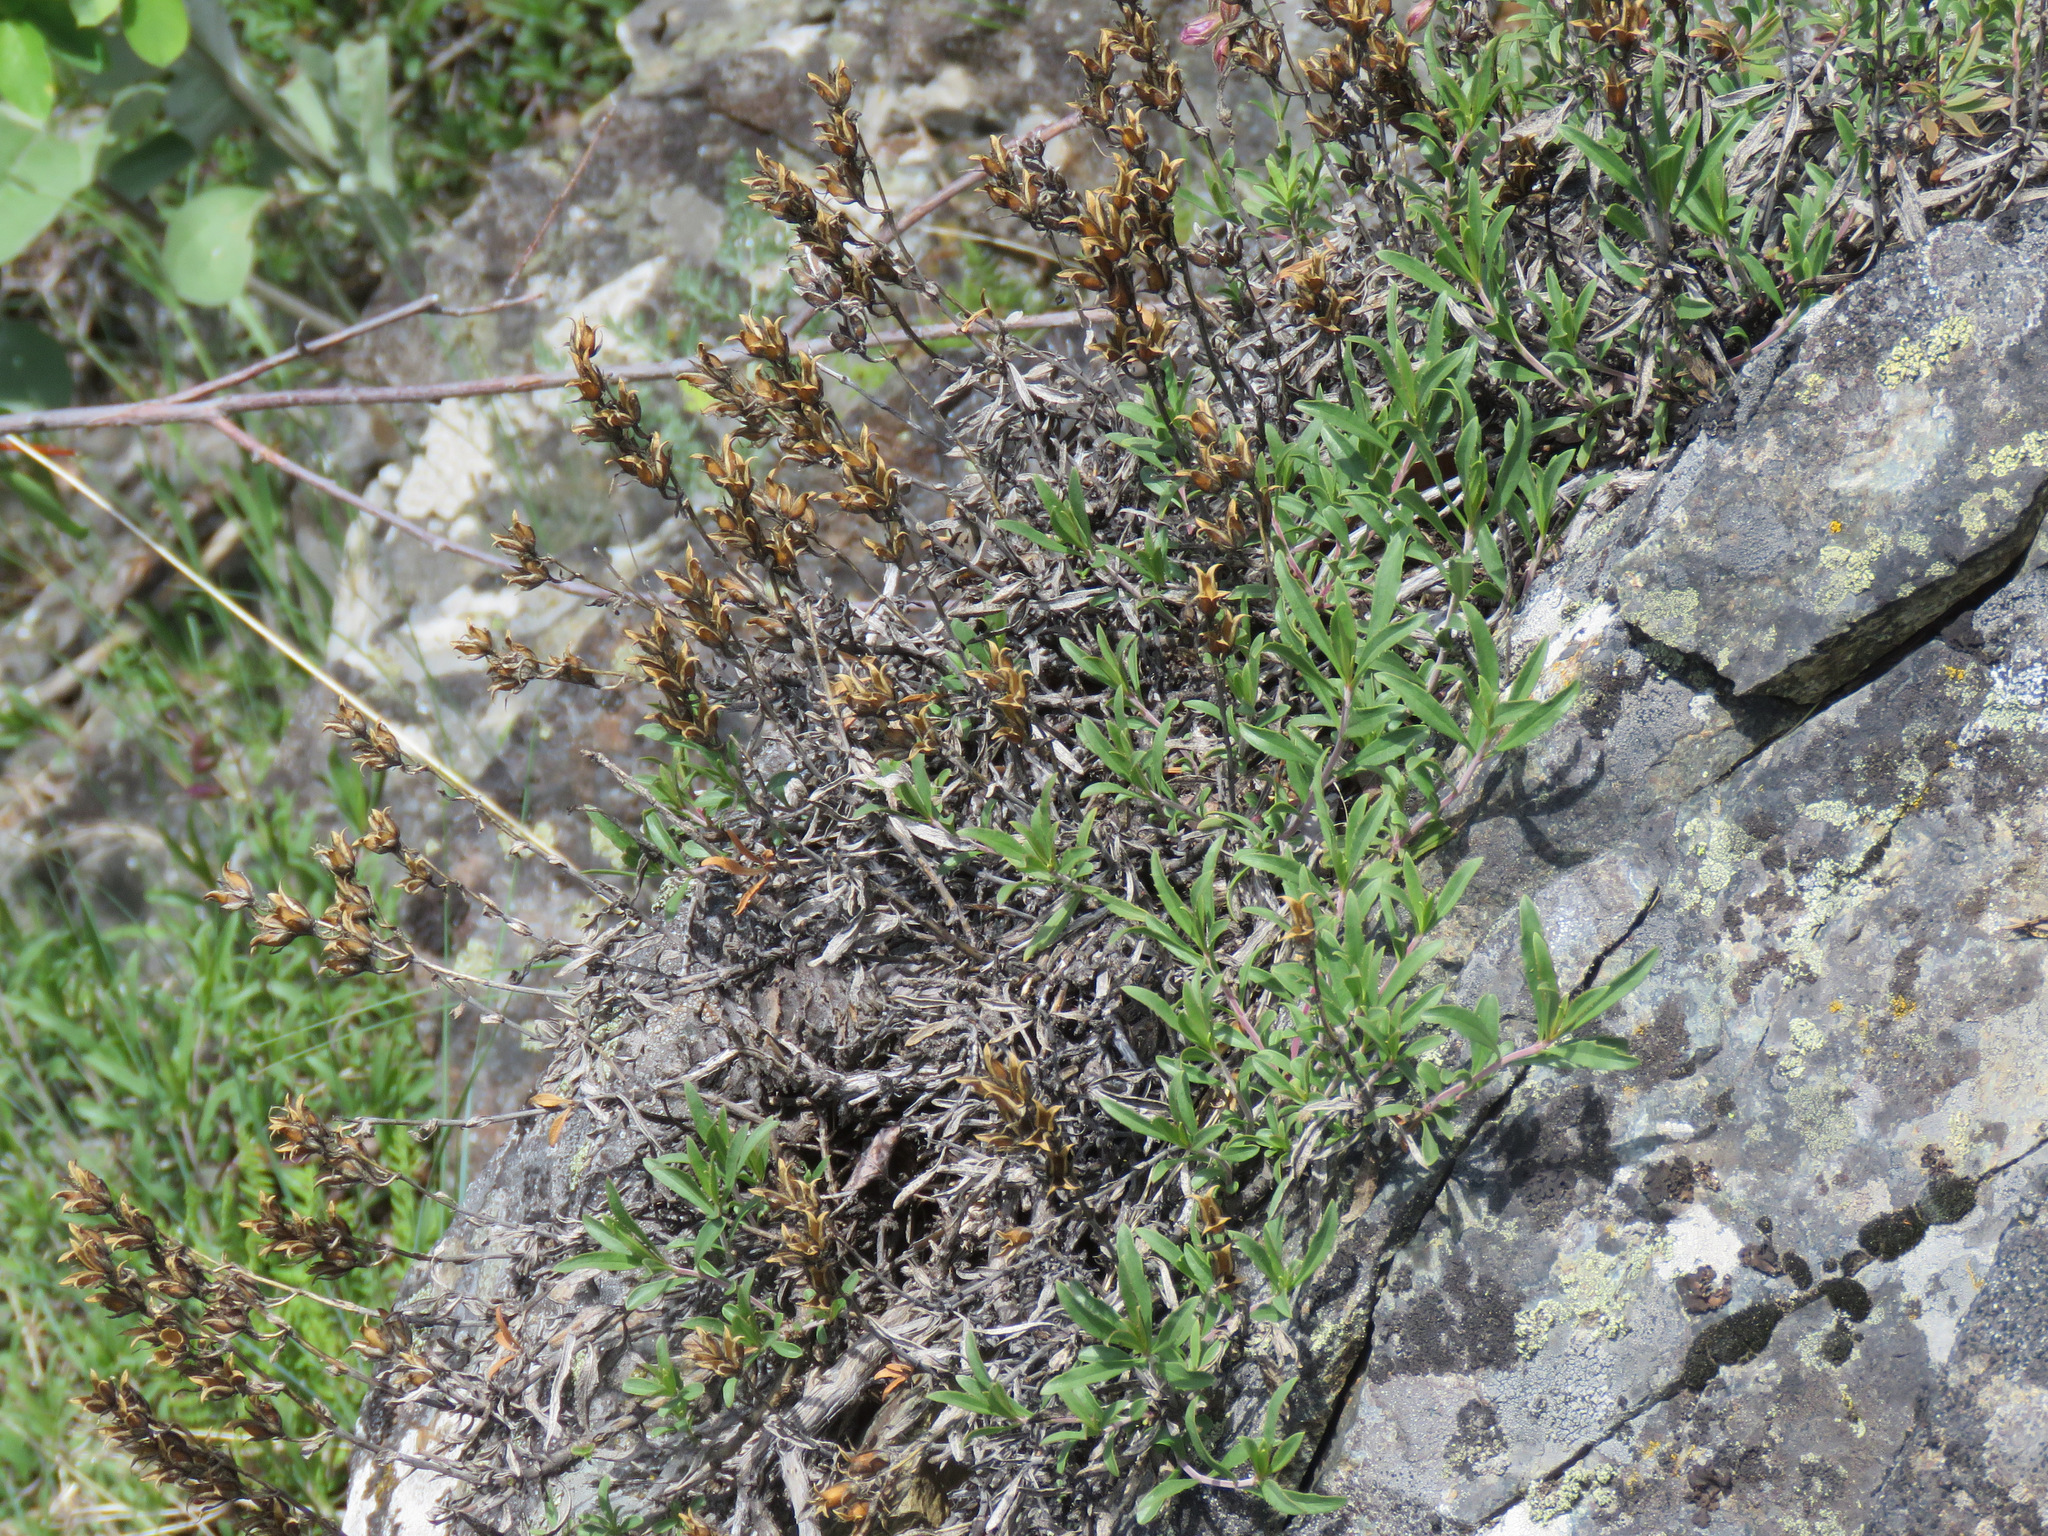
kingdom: Plantae
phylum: Tracheophyta
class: Magnoliopsida
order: Lamiales
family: Plantaginaceae
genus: Penstemon
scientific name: Penstemon fruticosus
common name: Bush penstemon
